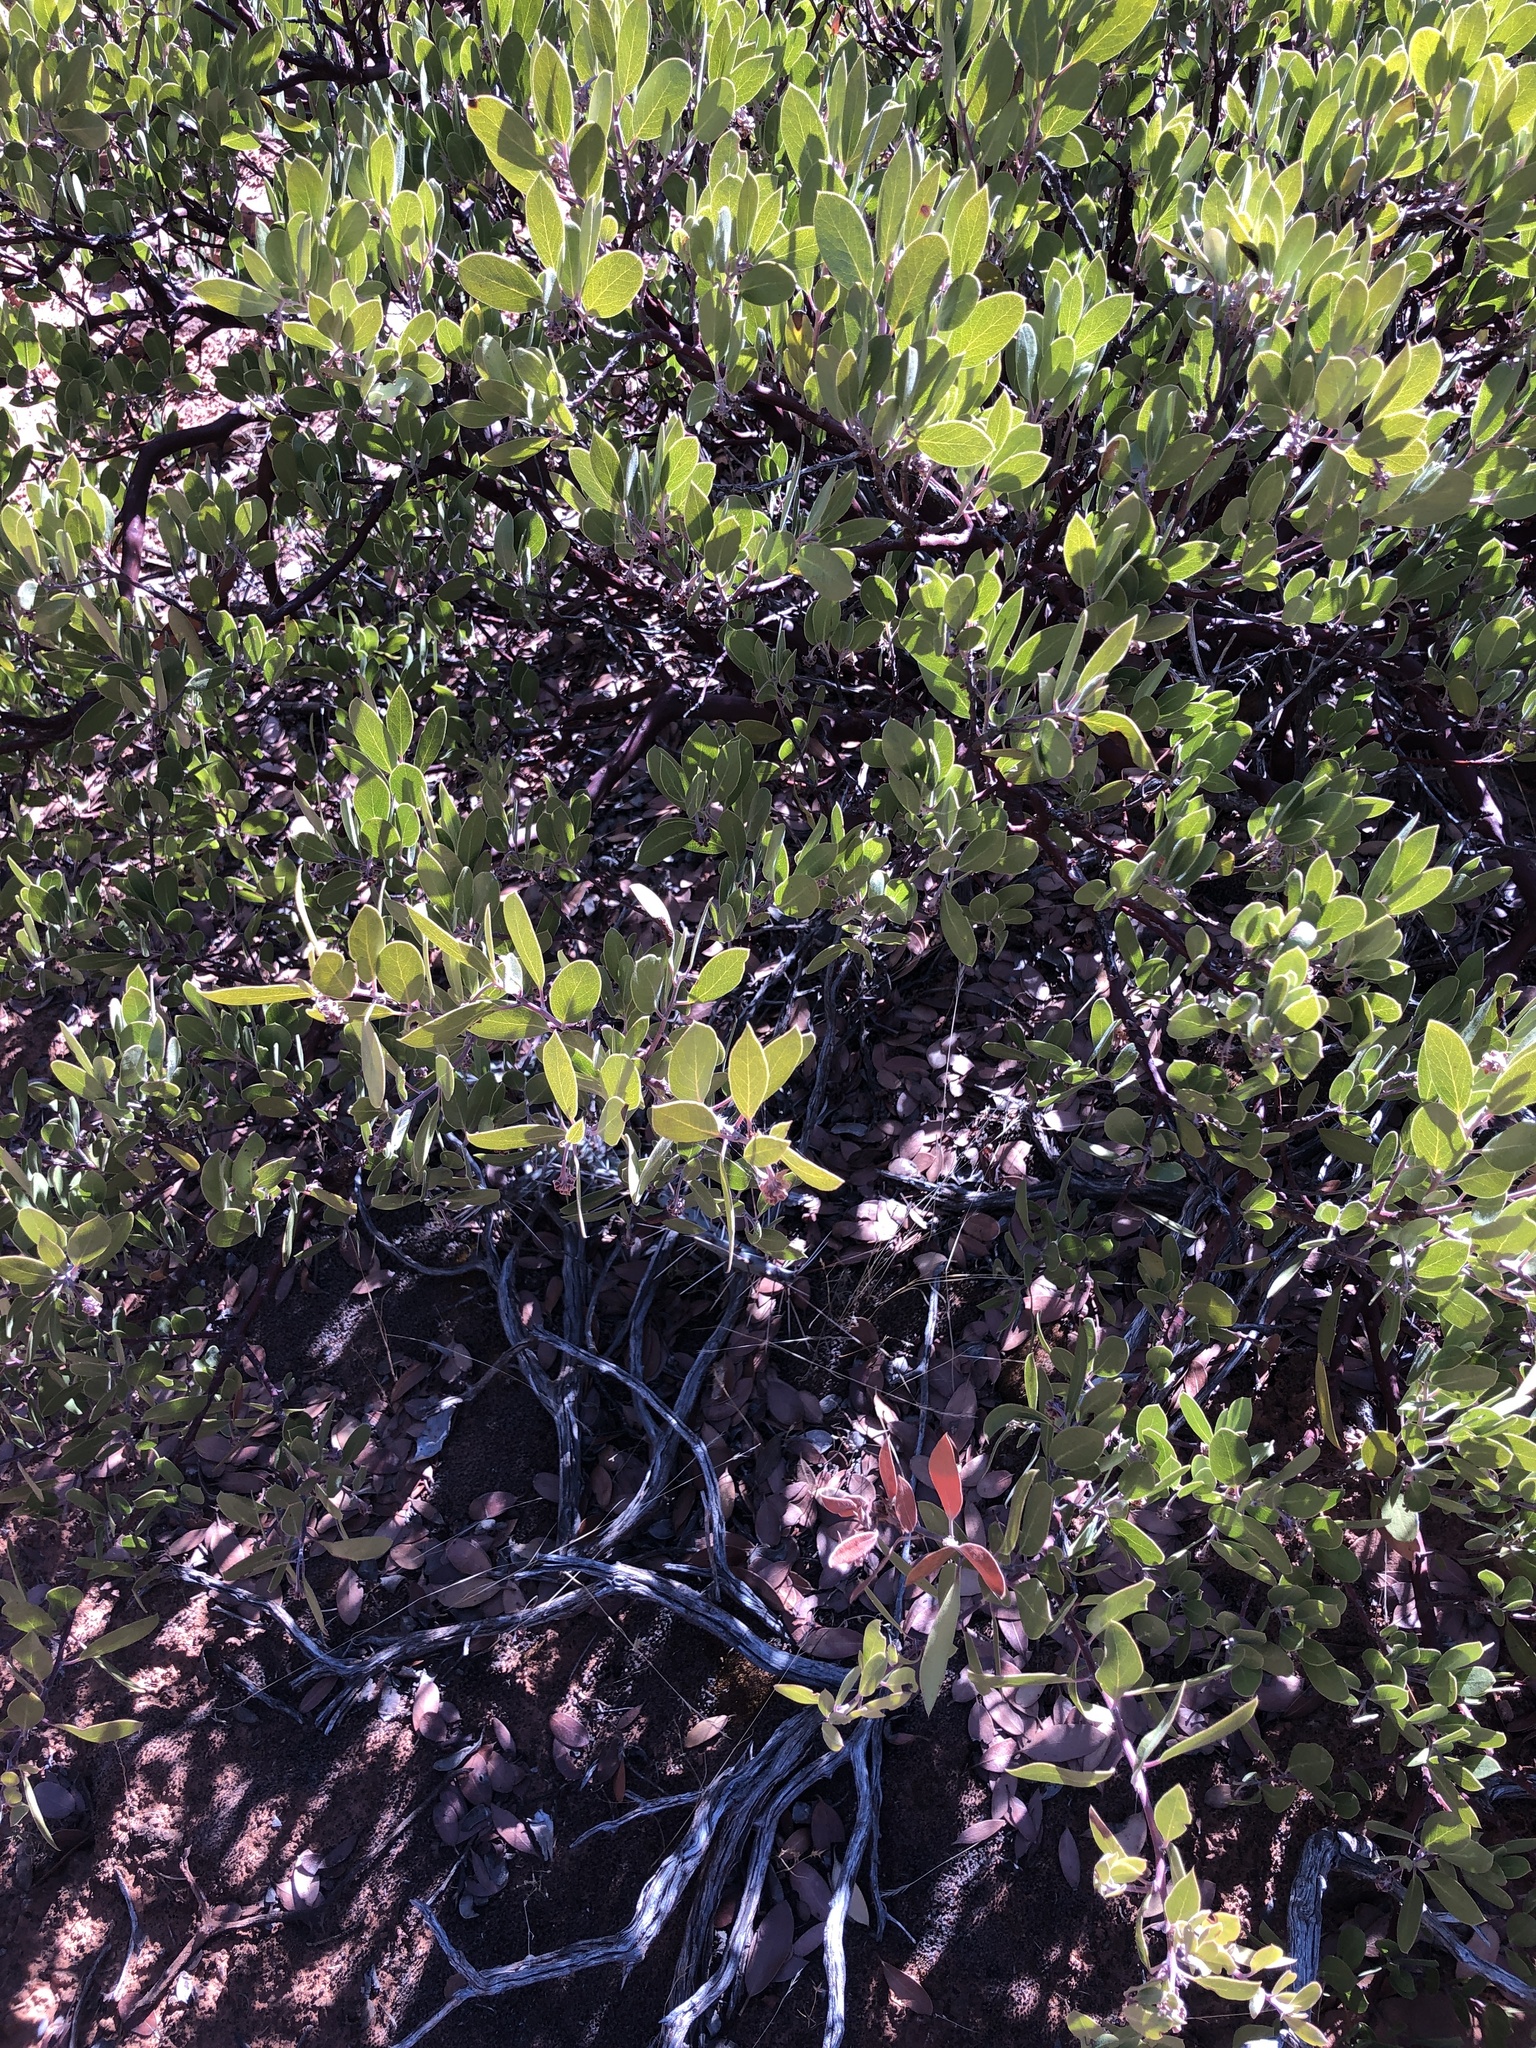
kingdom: Plantae
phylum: Tracheophyta
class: Magnoliopsida
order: Ericales
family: Ericaceae
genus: Arctostaphylos
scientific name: Arctostaphylos pungens
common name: Mexican manzanita
